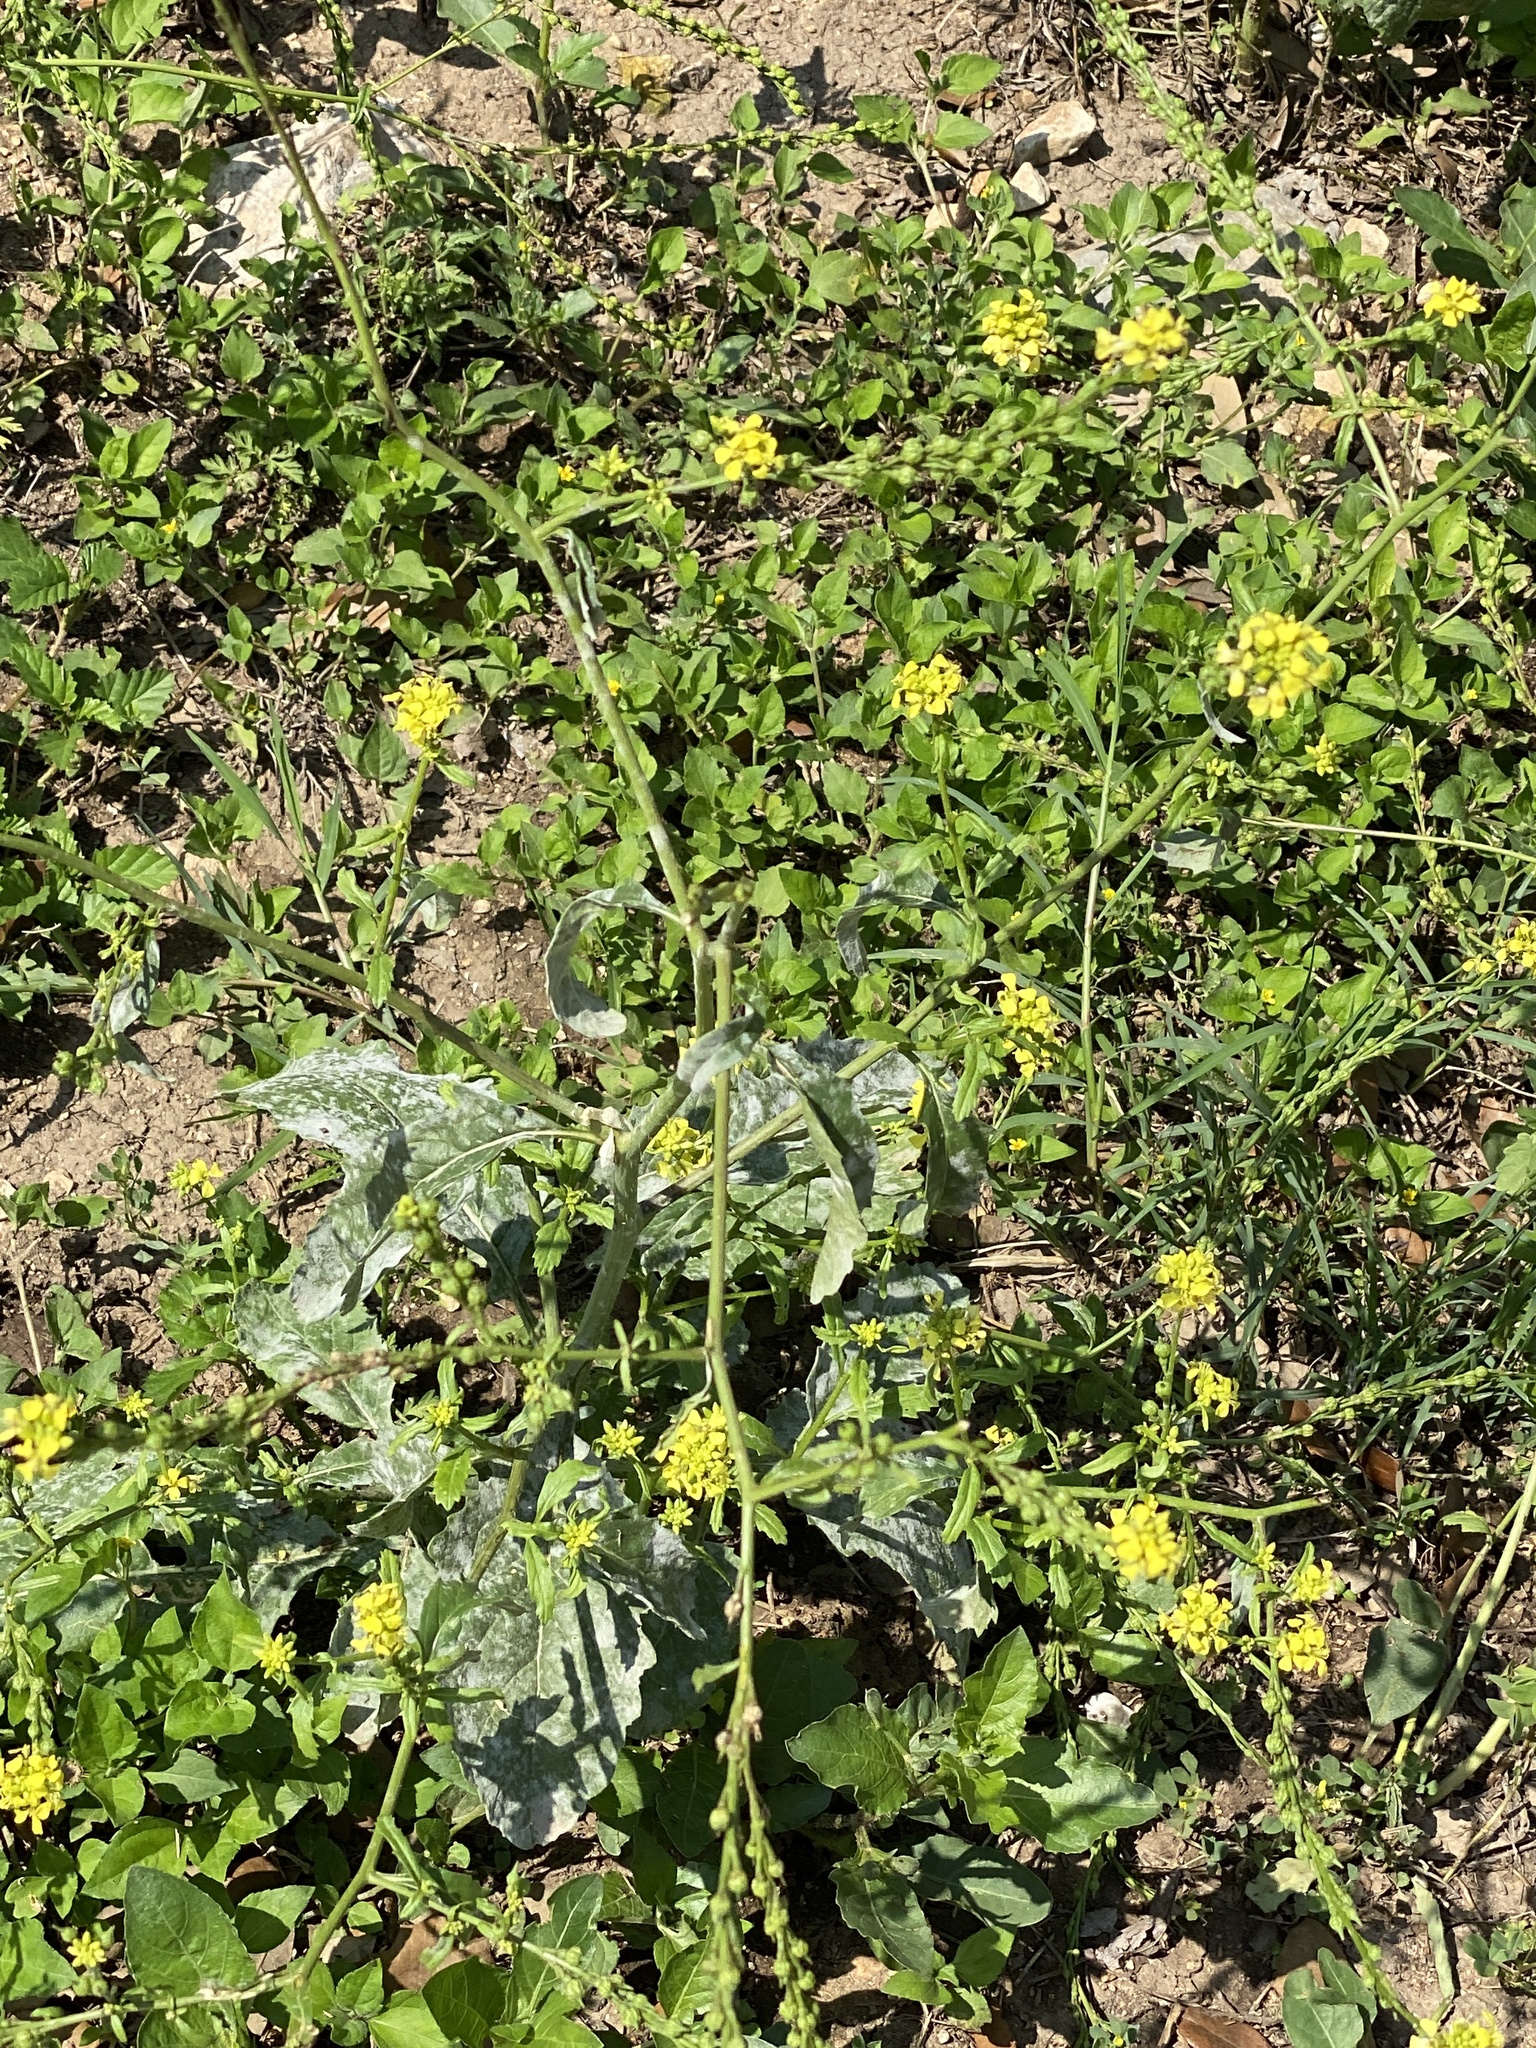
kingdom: Plantae
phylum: Tracheophyta
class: Magnoliopsida
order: Brassicales
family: Brassicaceae
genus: Rapistrum
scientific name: Rapistrum rugosum
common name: Annual bastardcabbage
